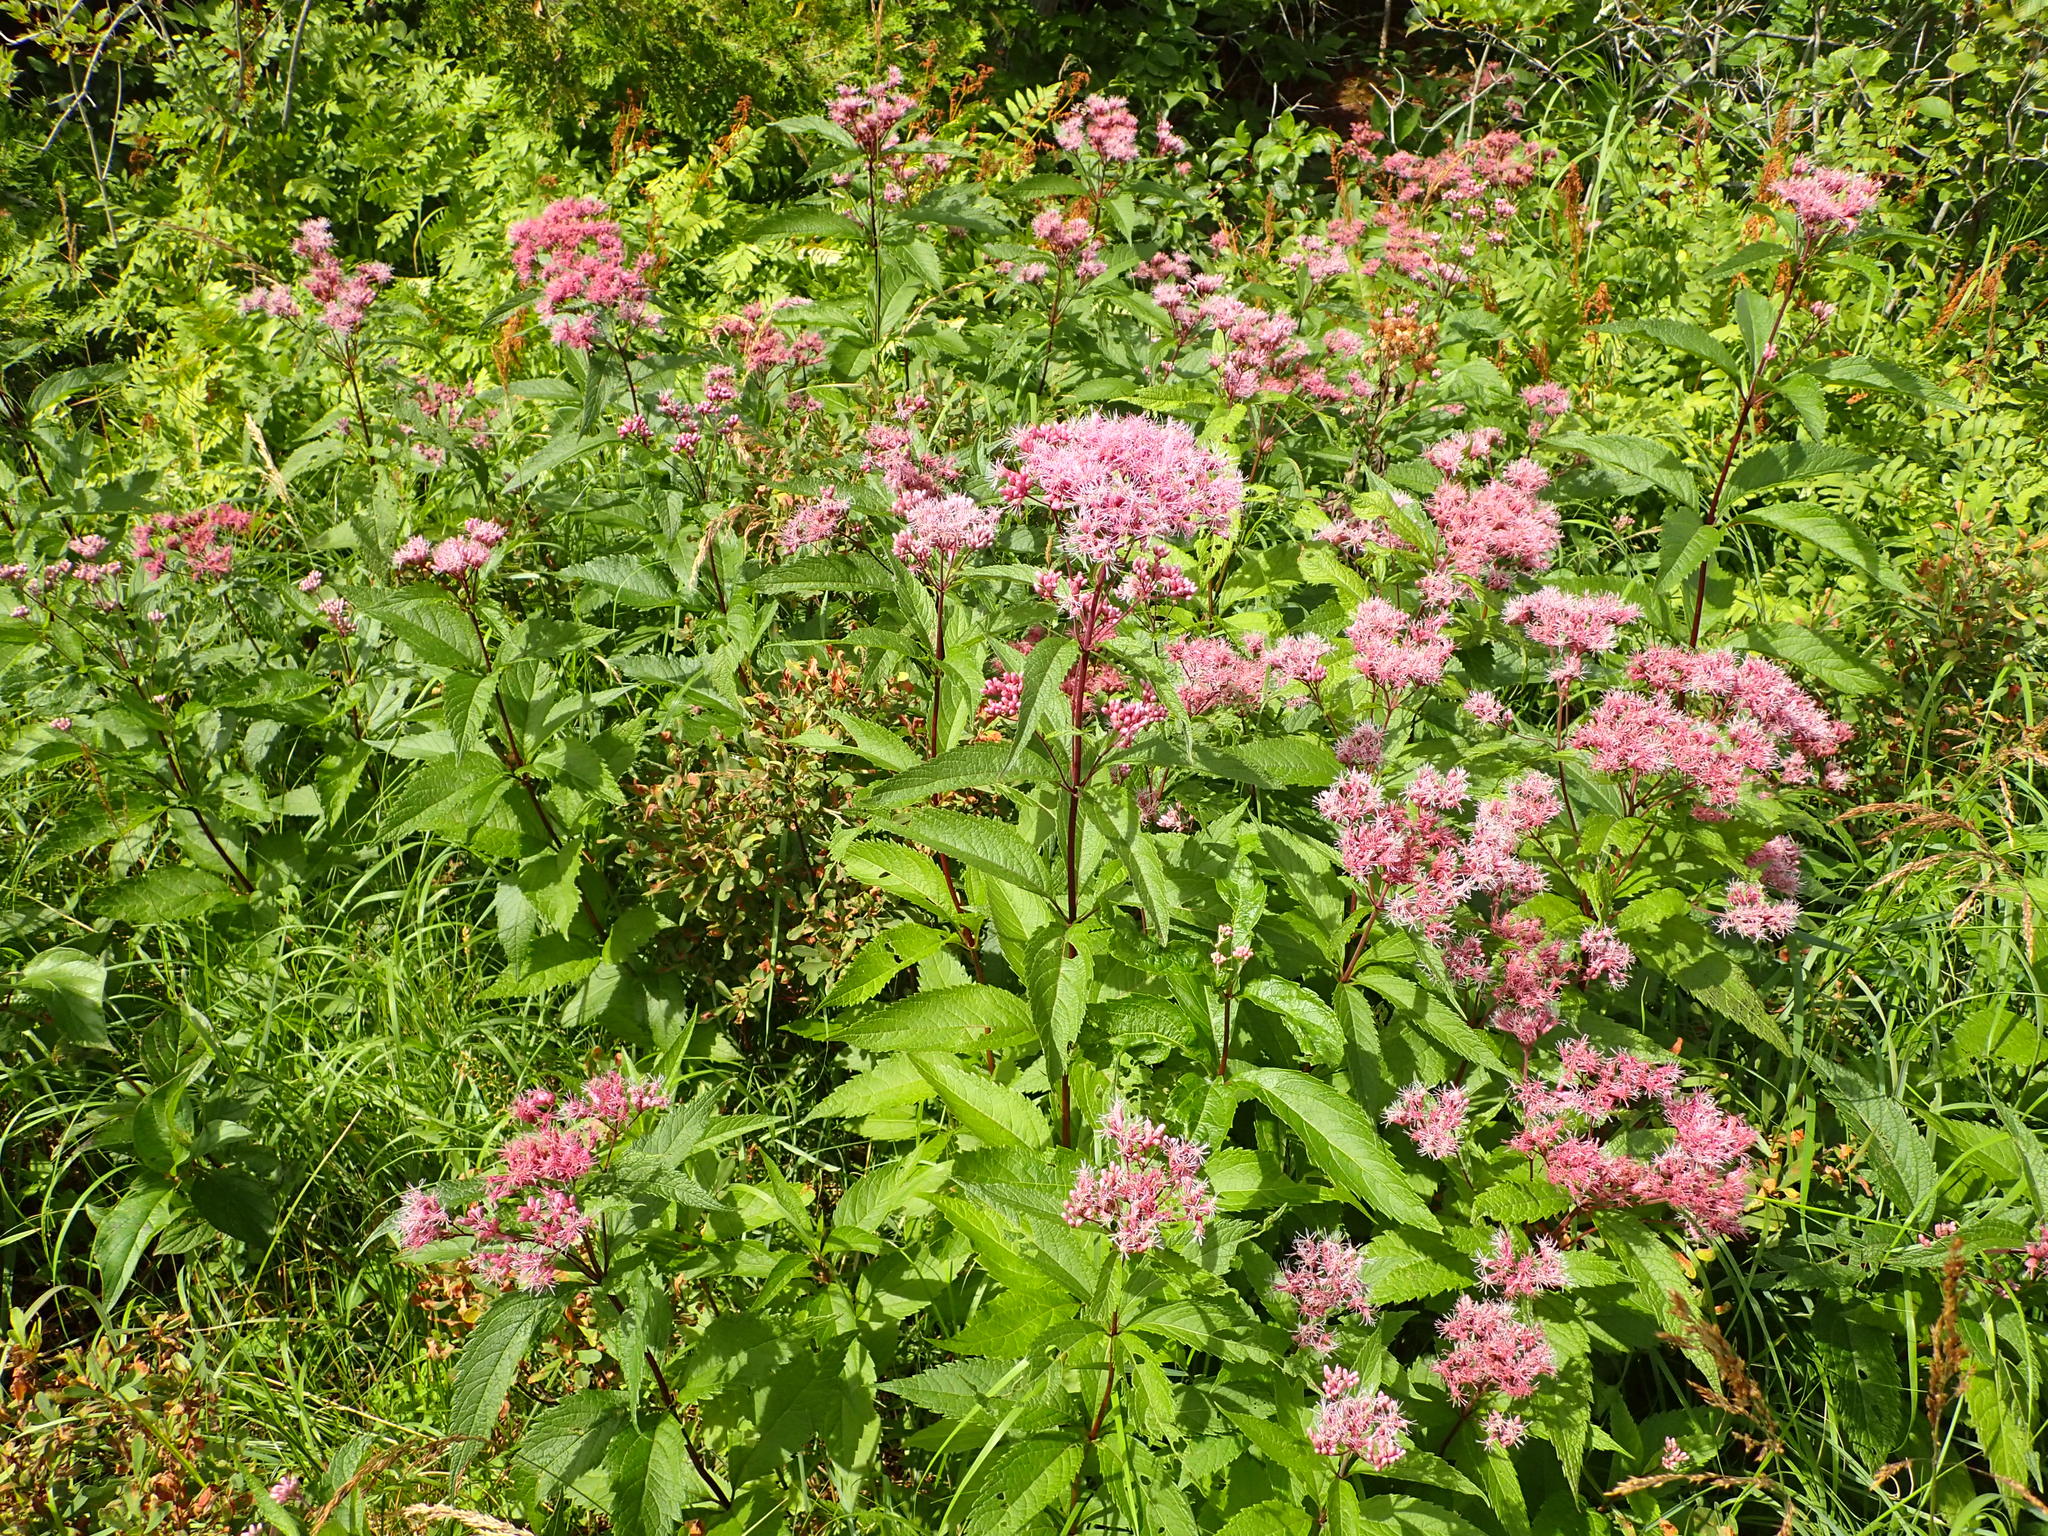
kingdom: Plantae
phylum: Tracheophyta
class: Magnoliopsida
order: Asterales
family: Asteraceae
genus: Eutrochium
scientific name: Eutrochium maculatum
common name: Spotted joe pye weed
